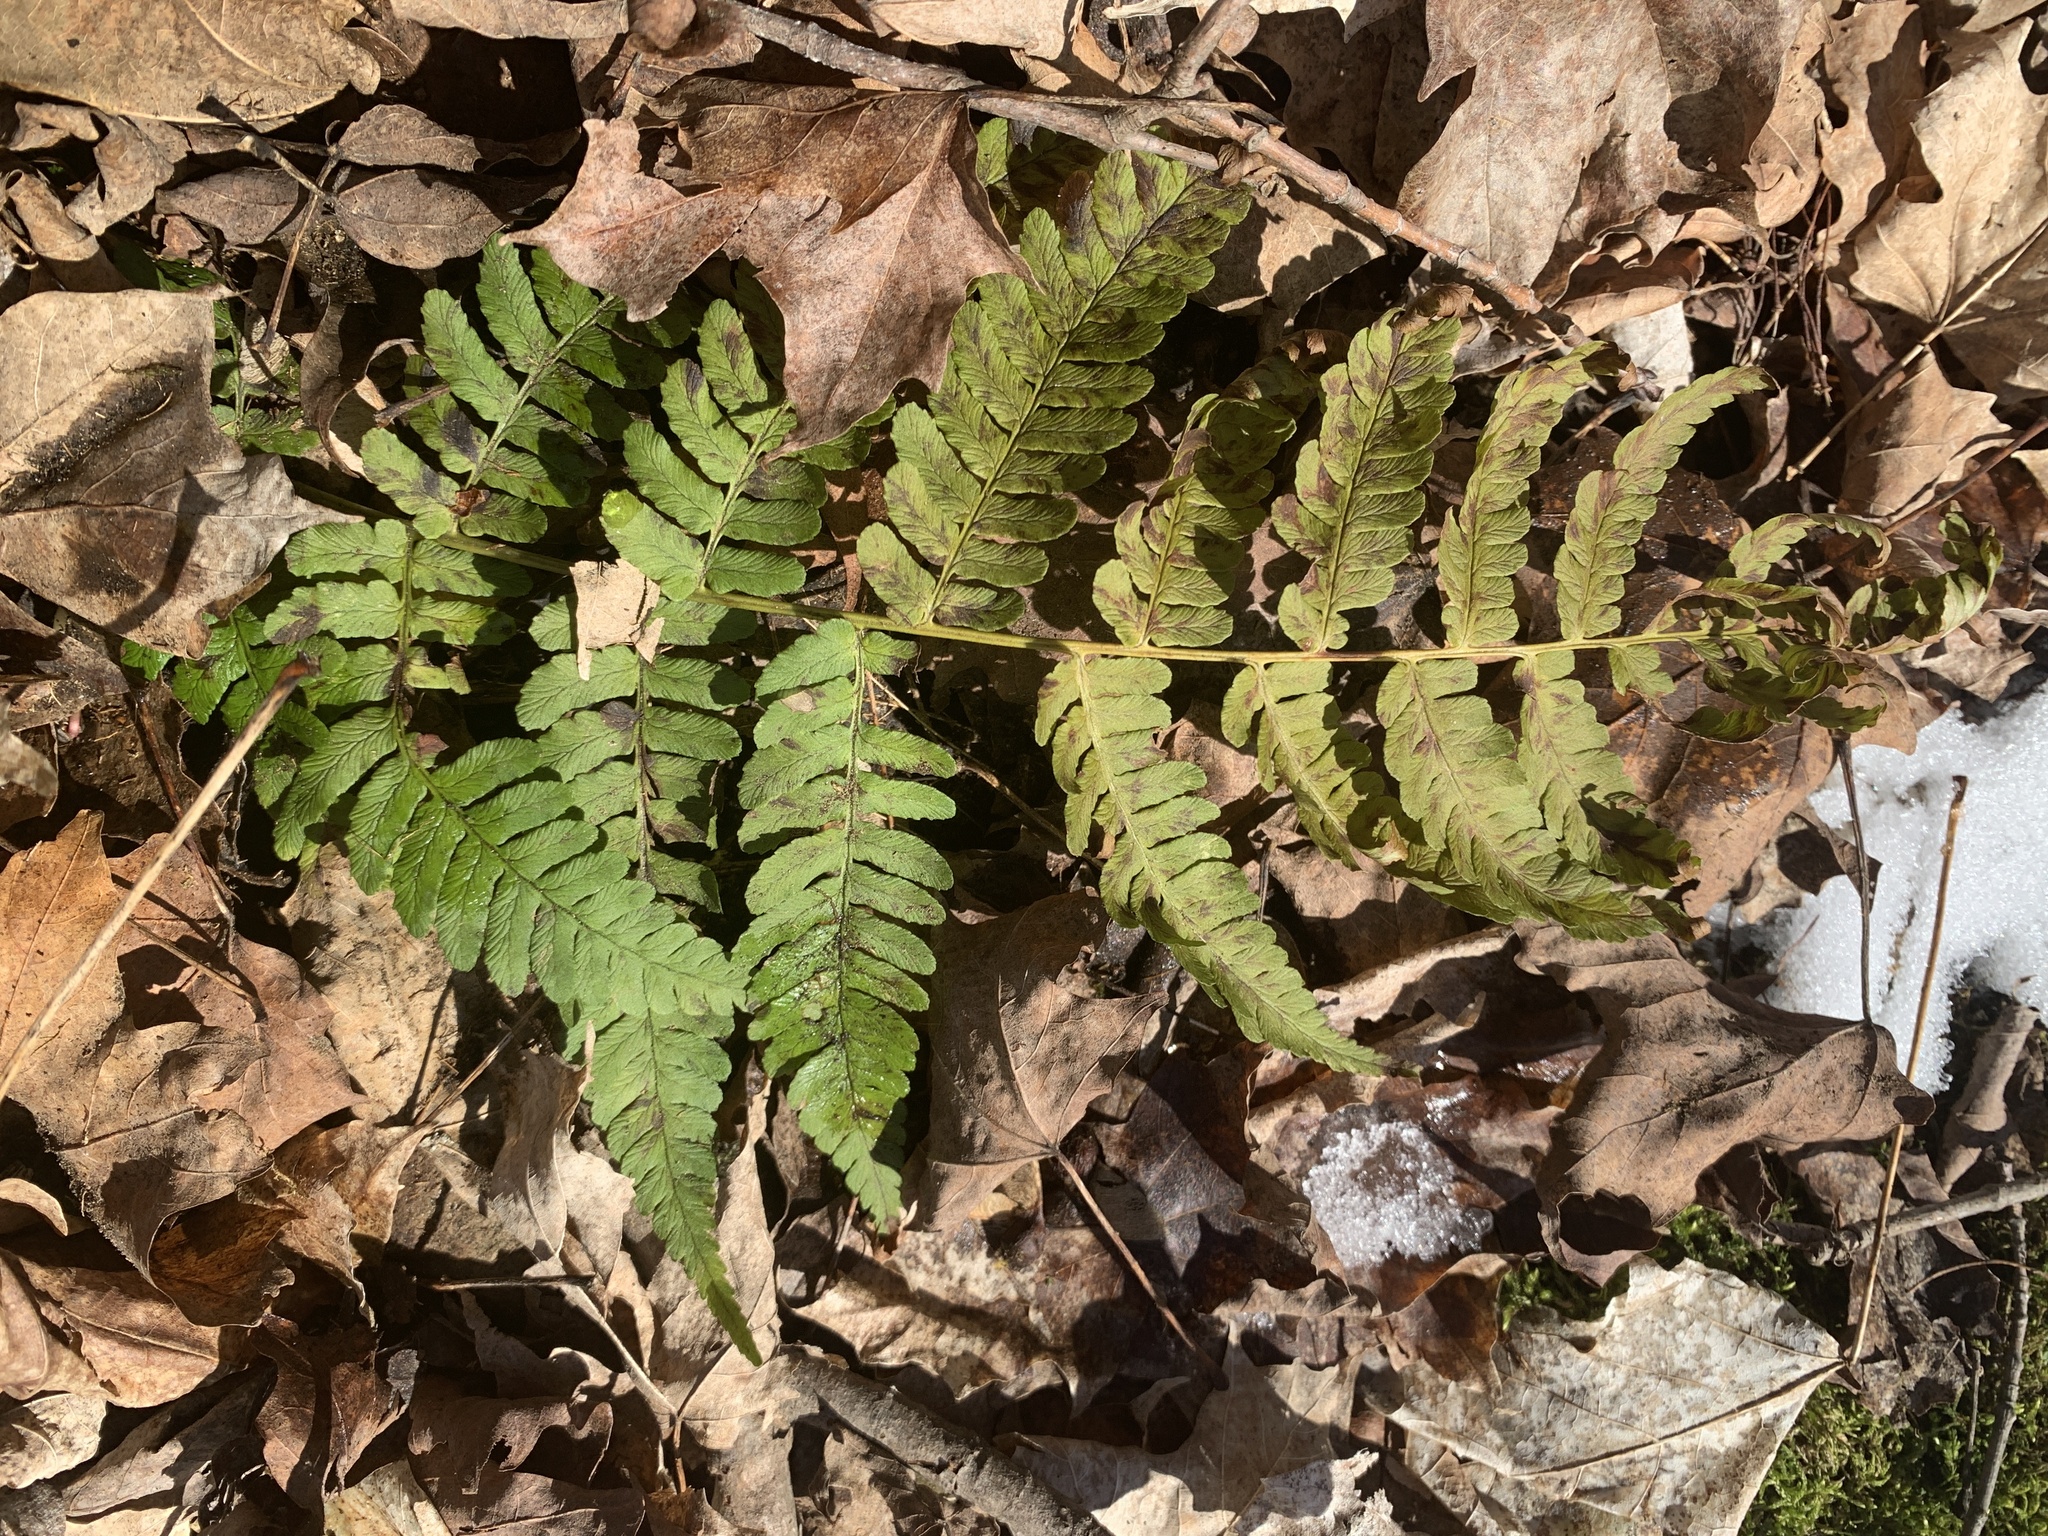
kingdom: Plantae
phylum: Tracheophyta
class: Polypodiopsida
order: Polypodiales
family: Dryopteridaceae
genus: Dryopteris
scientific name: Dryopteris marginalis
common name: Marginal wood fern
